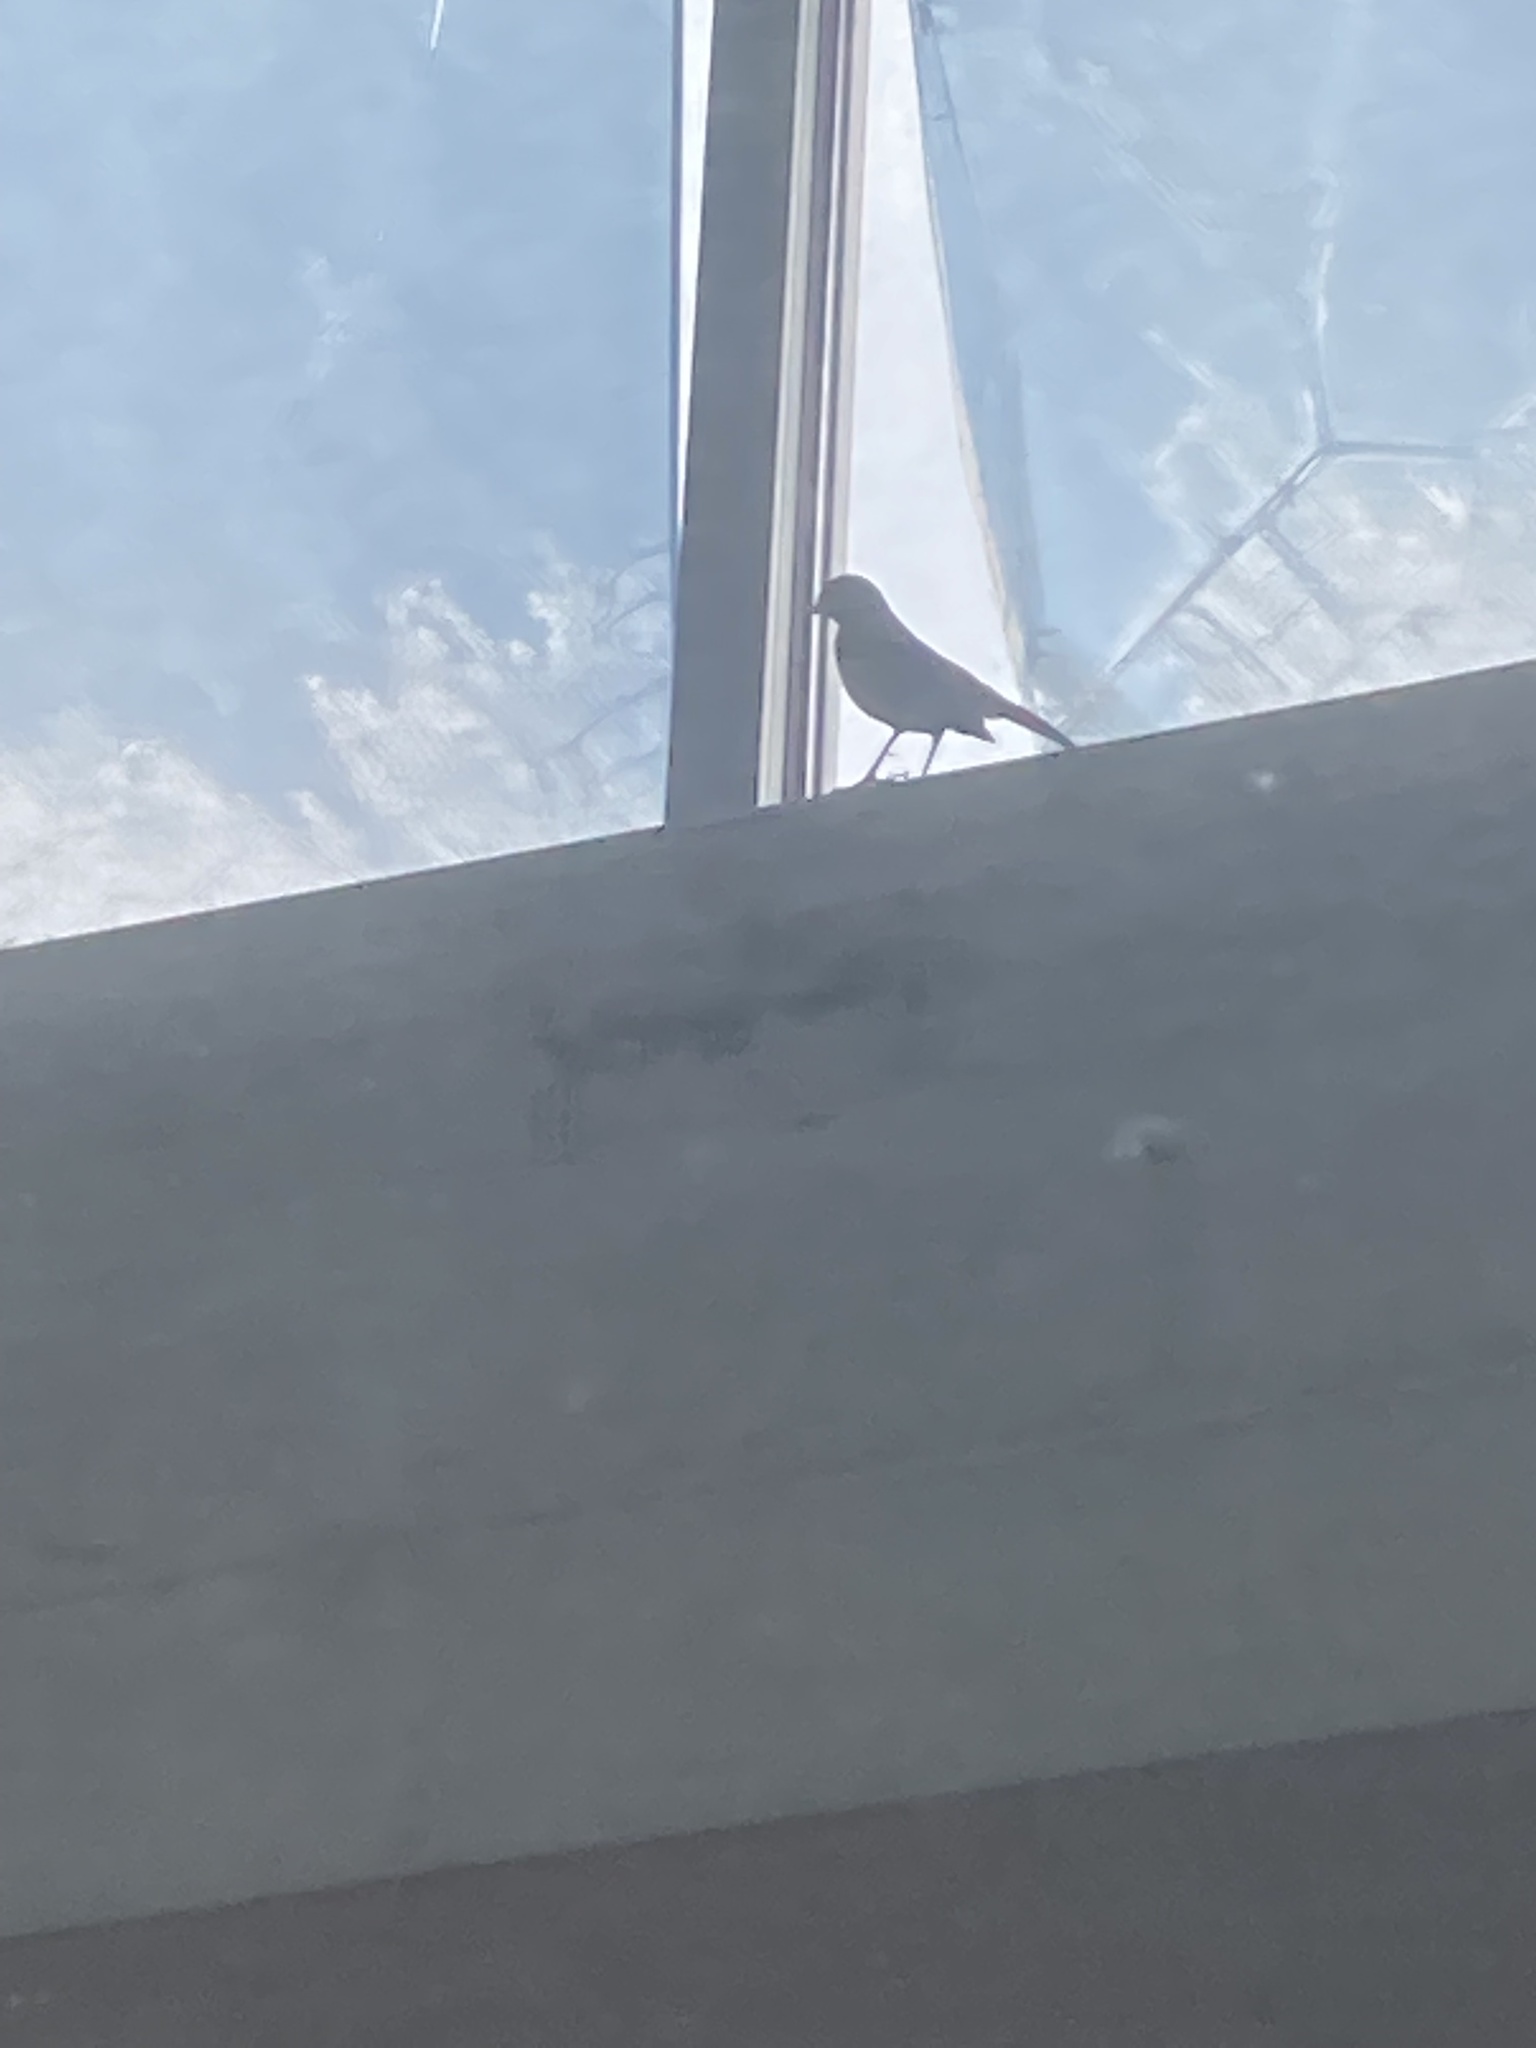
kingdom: Animalia
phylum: Chordata
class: Aves
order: Passeriformes
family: Mimidae
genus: Mimus
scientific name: Mimus polyglottos
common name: Northern mockingbird
